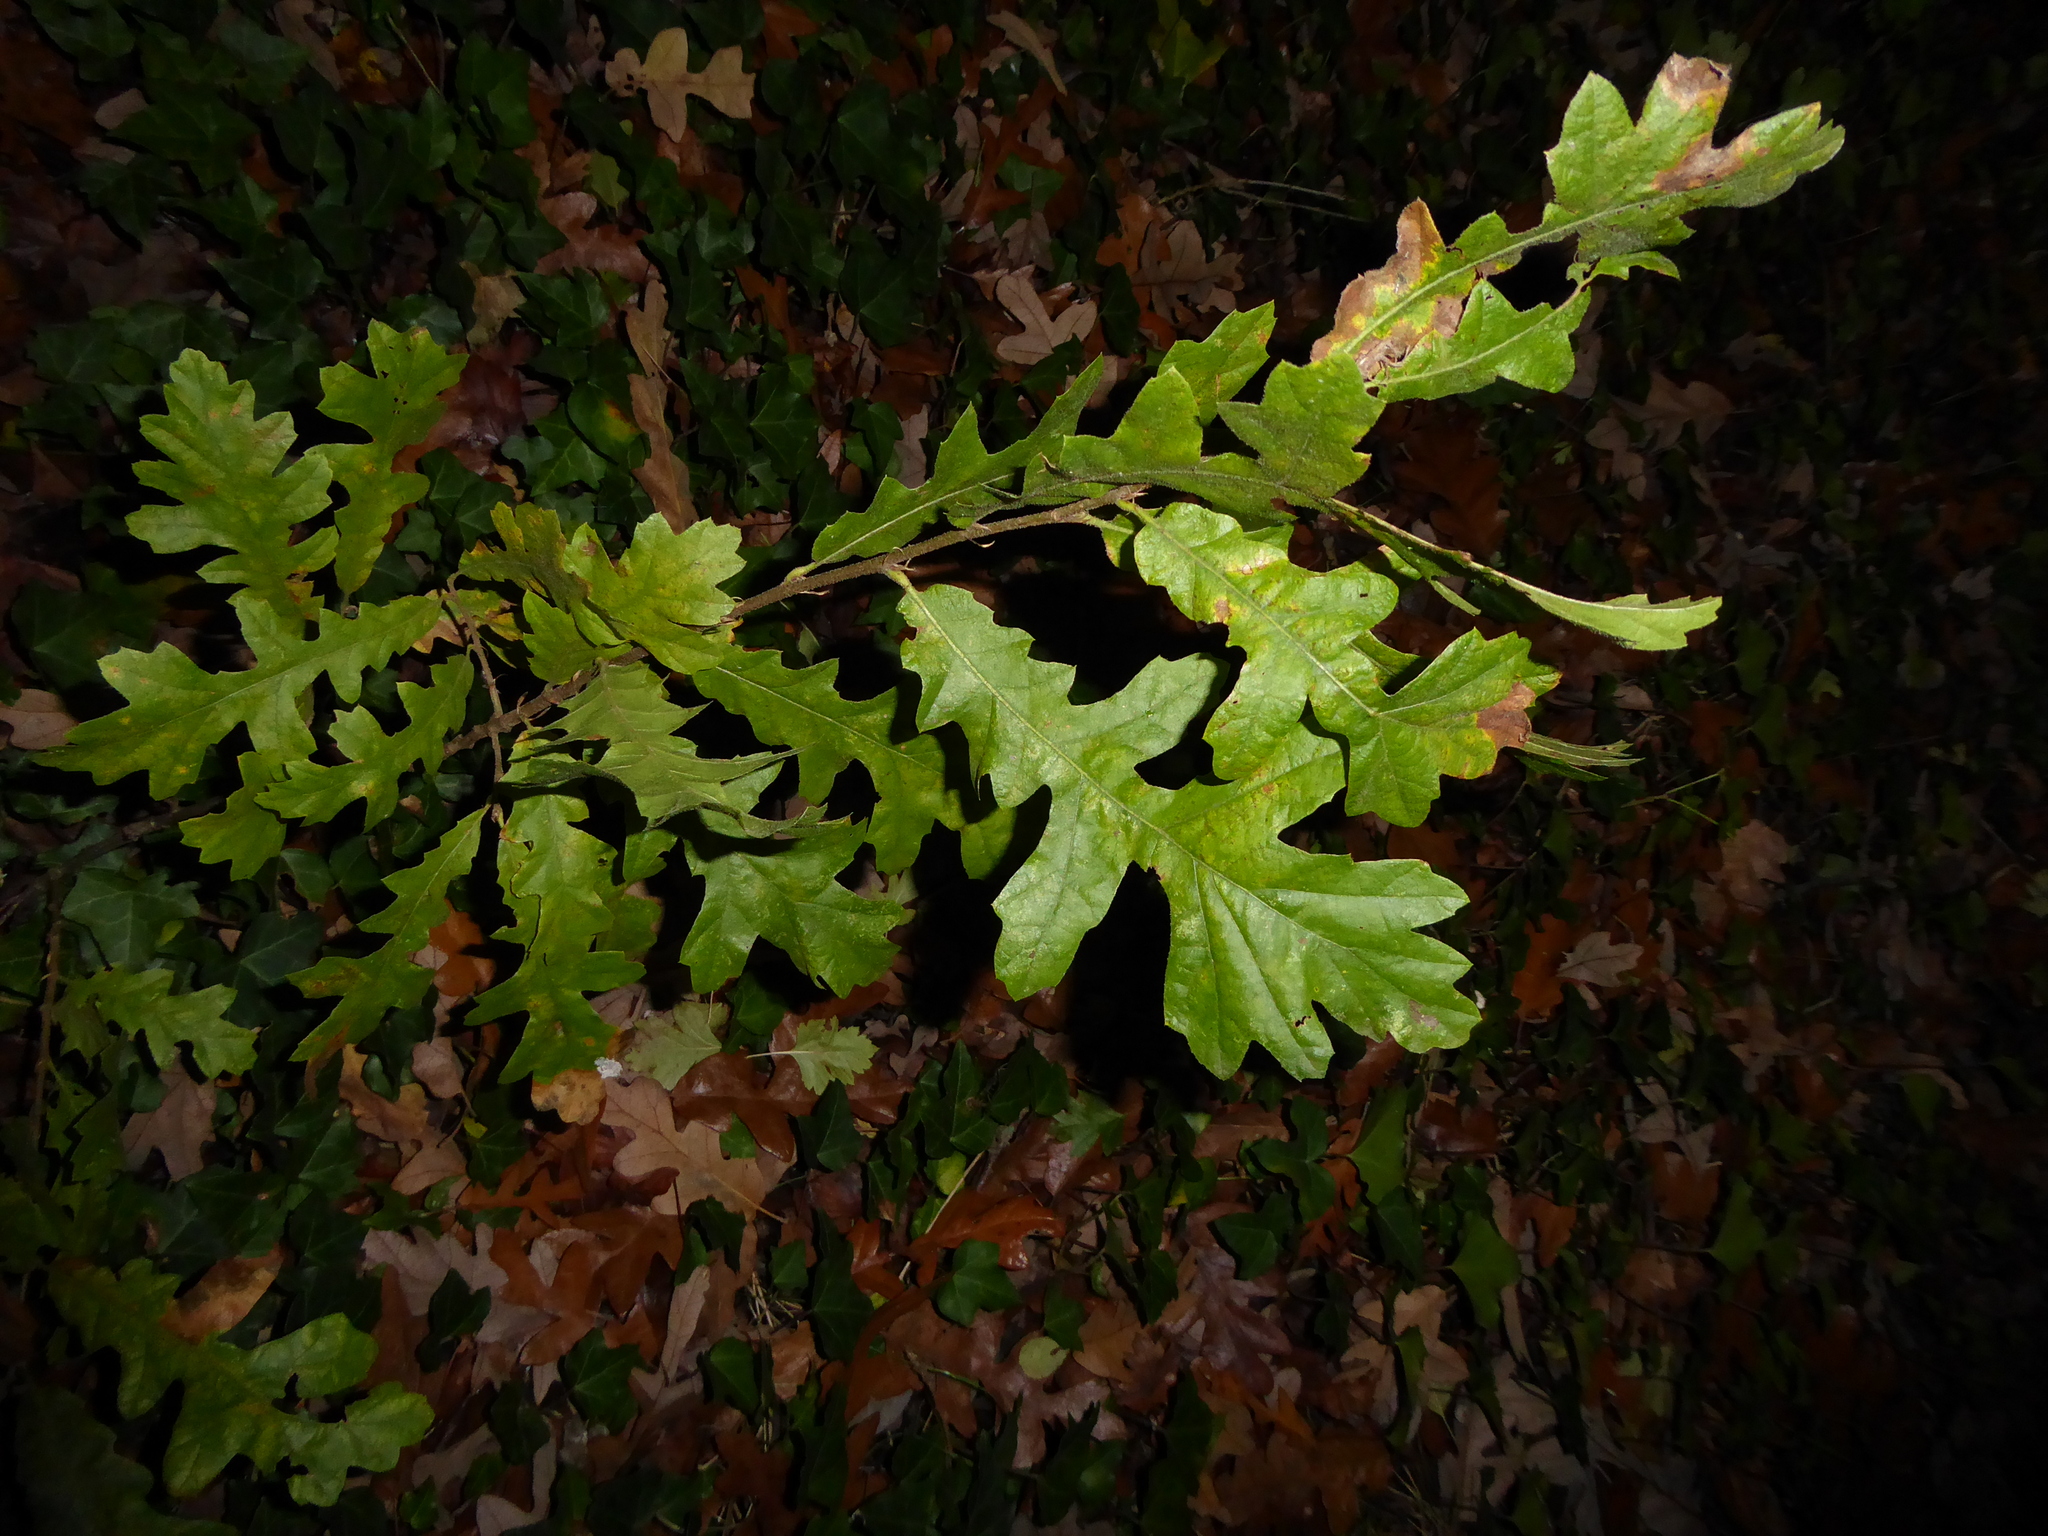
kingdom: Plantae
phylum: Tracheophyta
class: Magnoliopsida
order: Fagales
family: Fagaceae
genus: Quercus
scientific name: Quercus cerris
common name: Turkey oak
